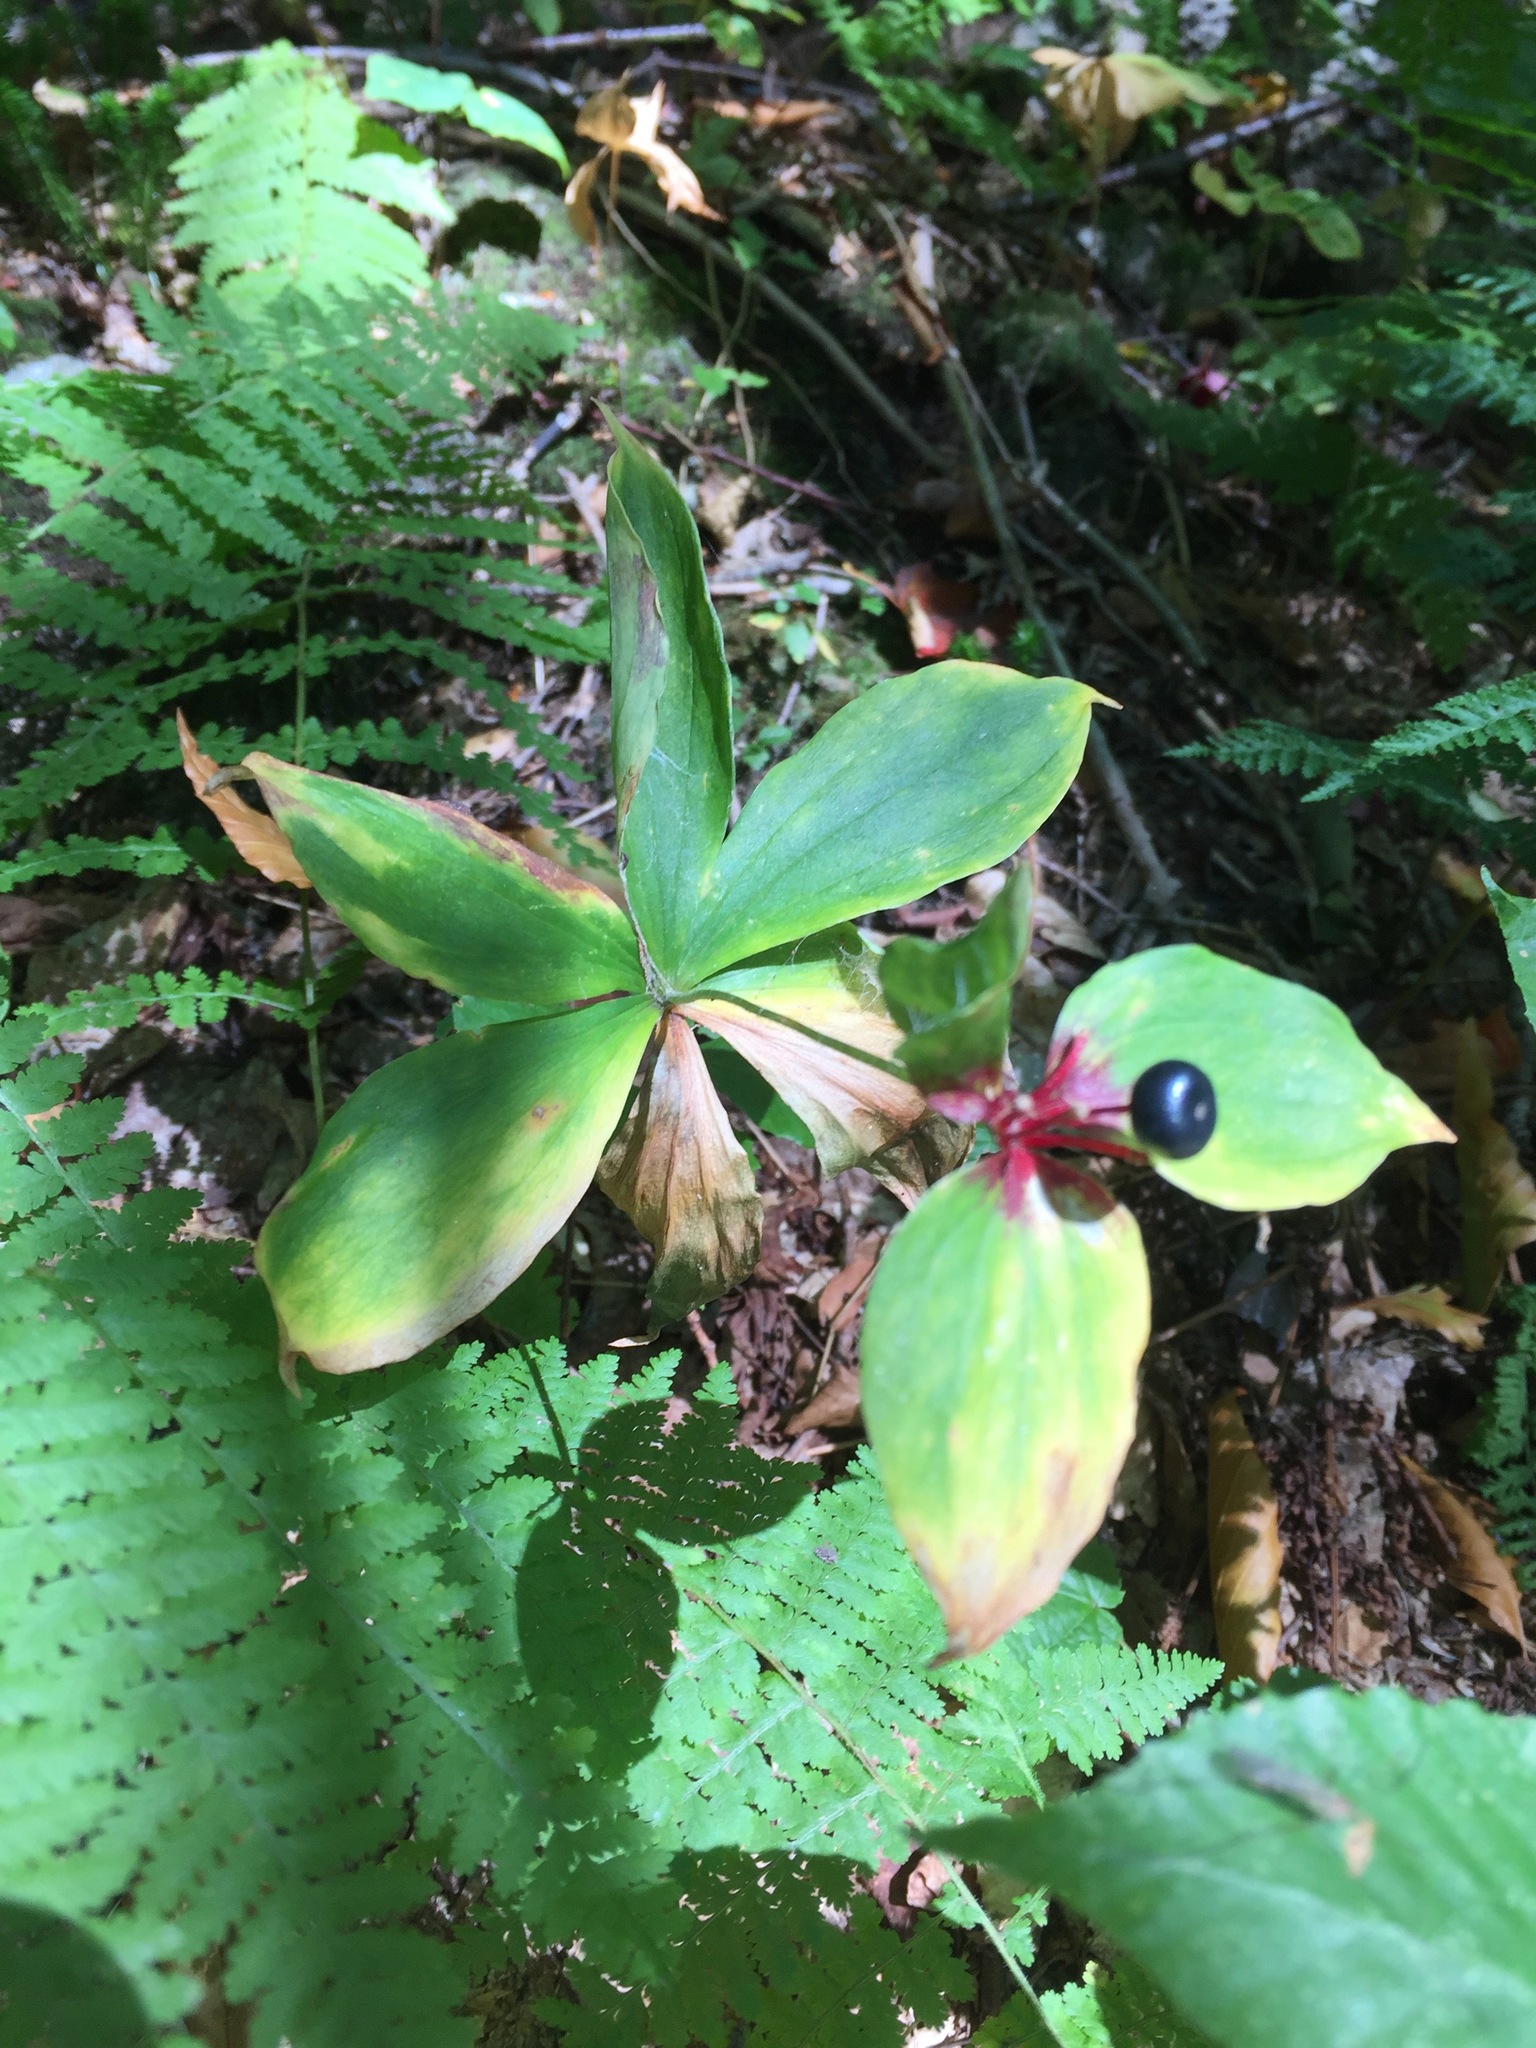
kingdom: Plantae
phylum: Tracheophyta
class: Liliopsida
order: Liliales
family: Liliaceae
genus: Medeola
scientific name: Medeola virginiana
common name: Indian cucumber-root
